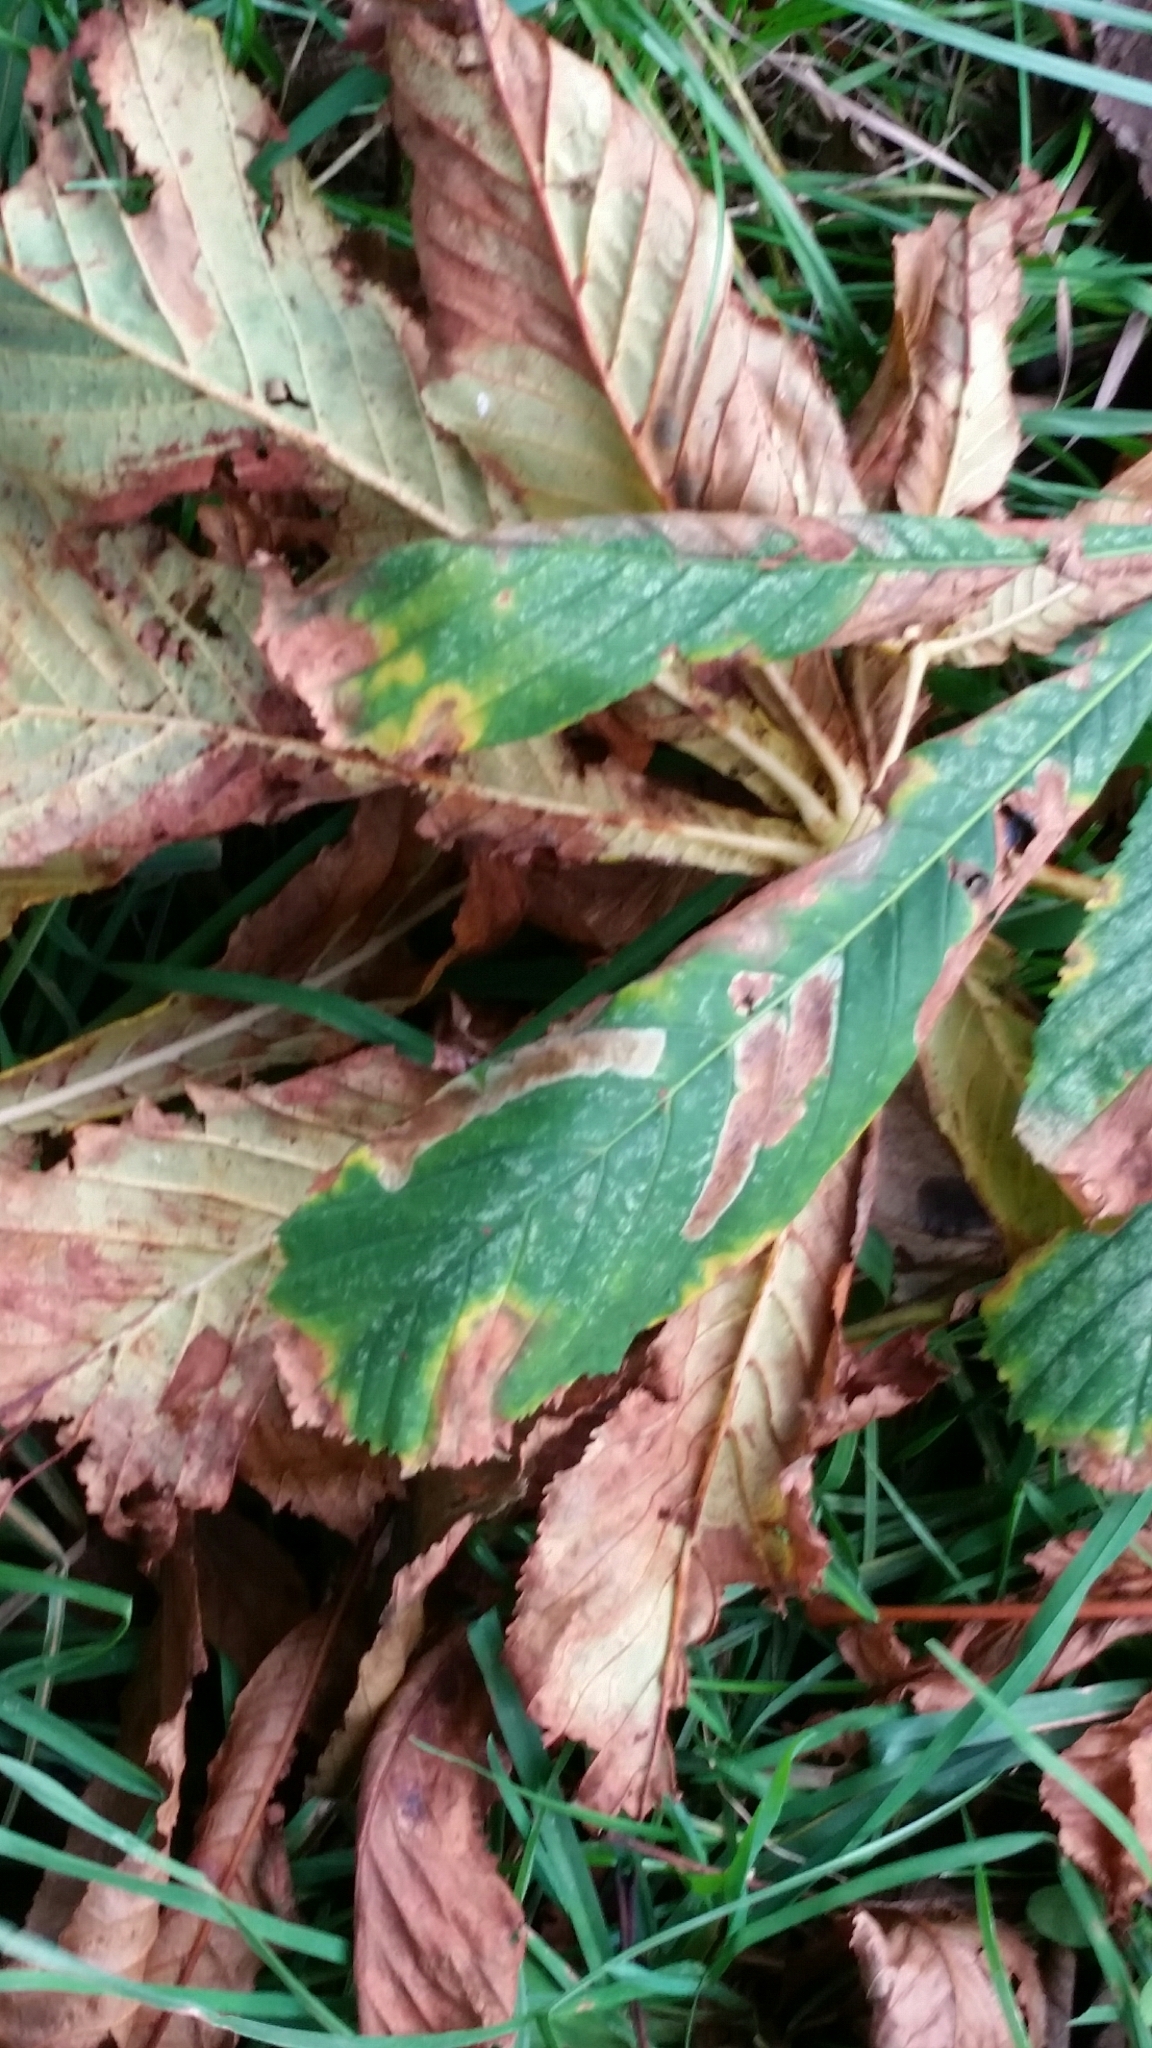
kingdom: Animalia
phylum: Arthropoda
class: Insecta
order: Lepidoptera
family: Gracillariidae
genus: Cameraria
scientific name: Cameraria ohridella
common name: Horse-chestnut leaf-miner
